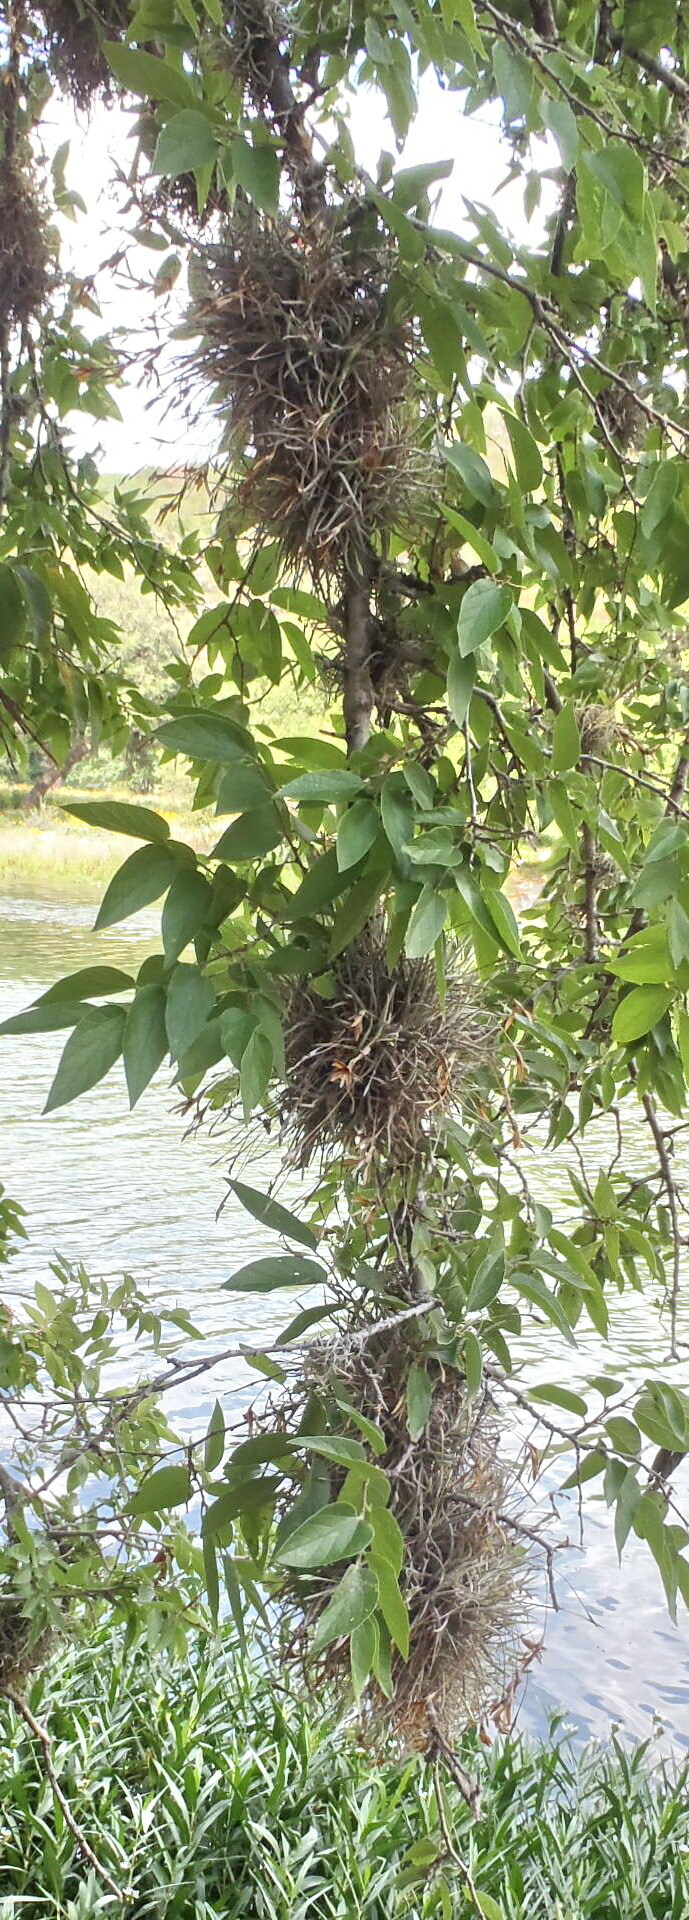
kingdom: Plantae
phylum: Tracheophyta
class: Liliopsida
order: Poales
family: Bromeliaceae
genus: Tillandsia
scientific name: Tillandsia recurvata
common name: Small ballmoss
